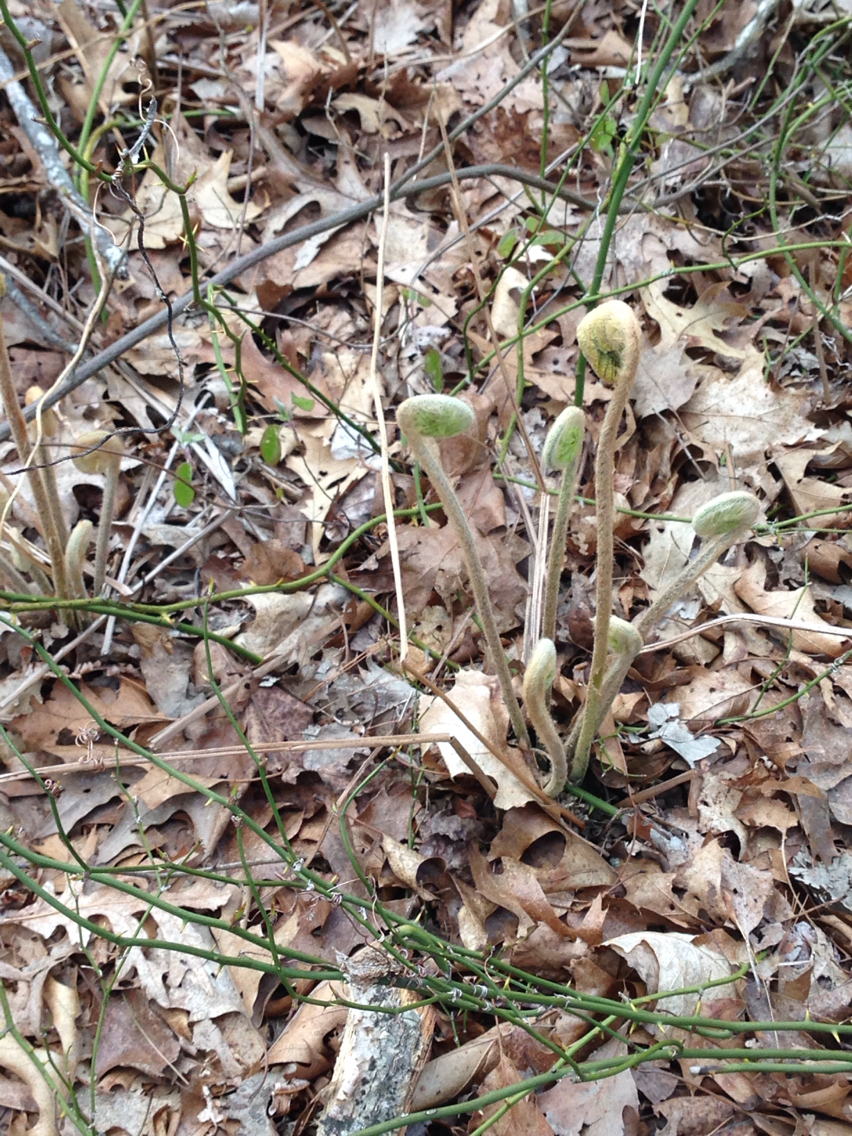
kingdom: Plantae
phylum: Tracheophyta
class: Polypodiopsida
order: Osmundales
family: Osmundaceae
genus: Osmundastrum
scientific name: Osmundastrum cinnamomeum
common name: Cinnamon fern
